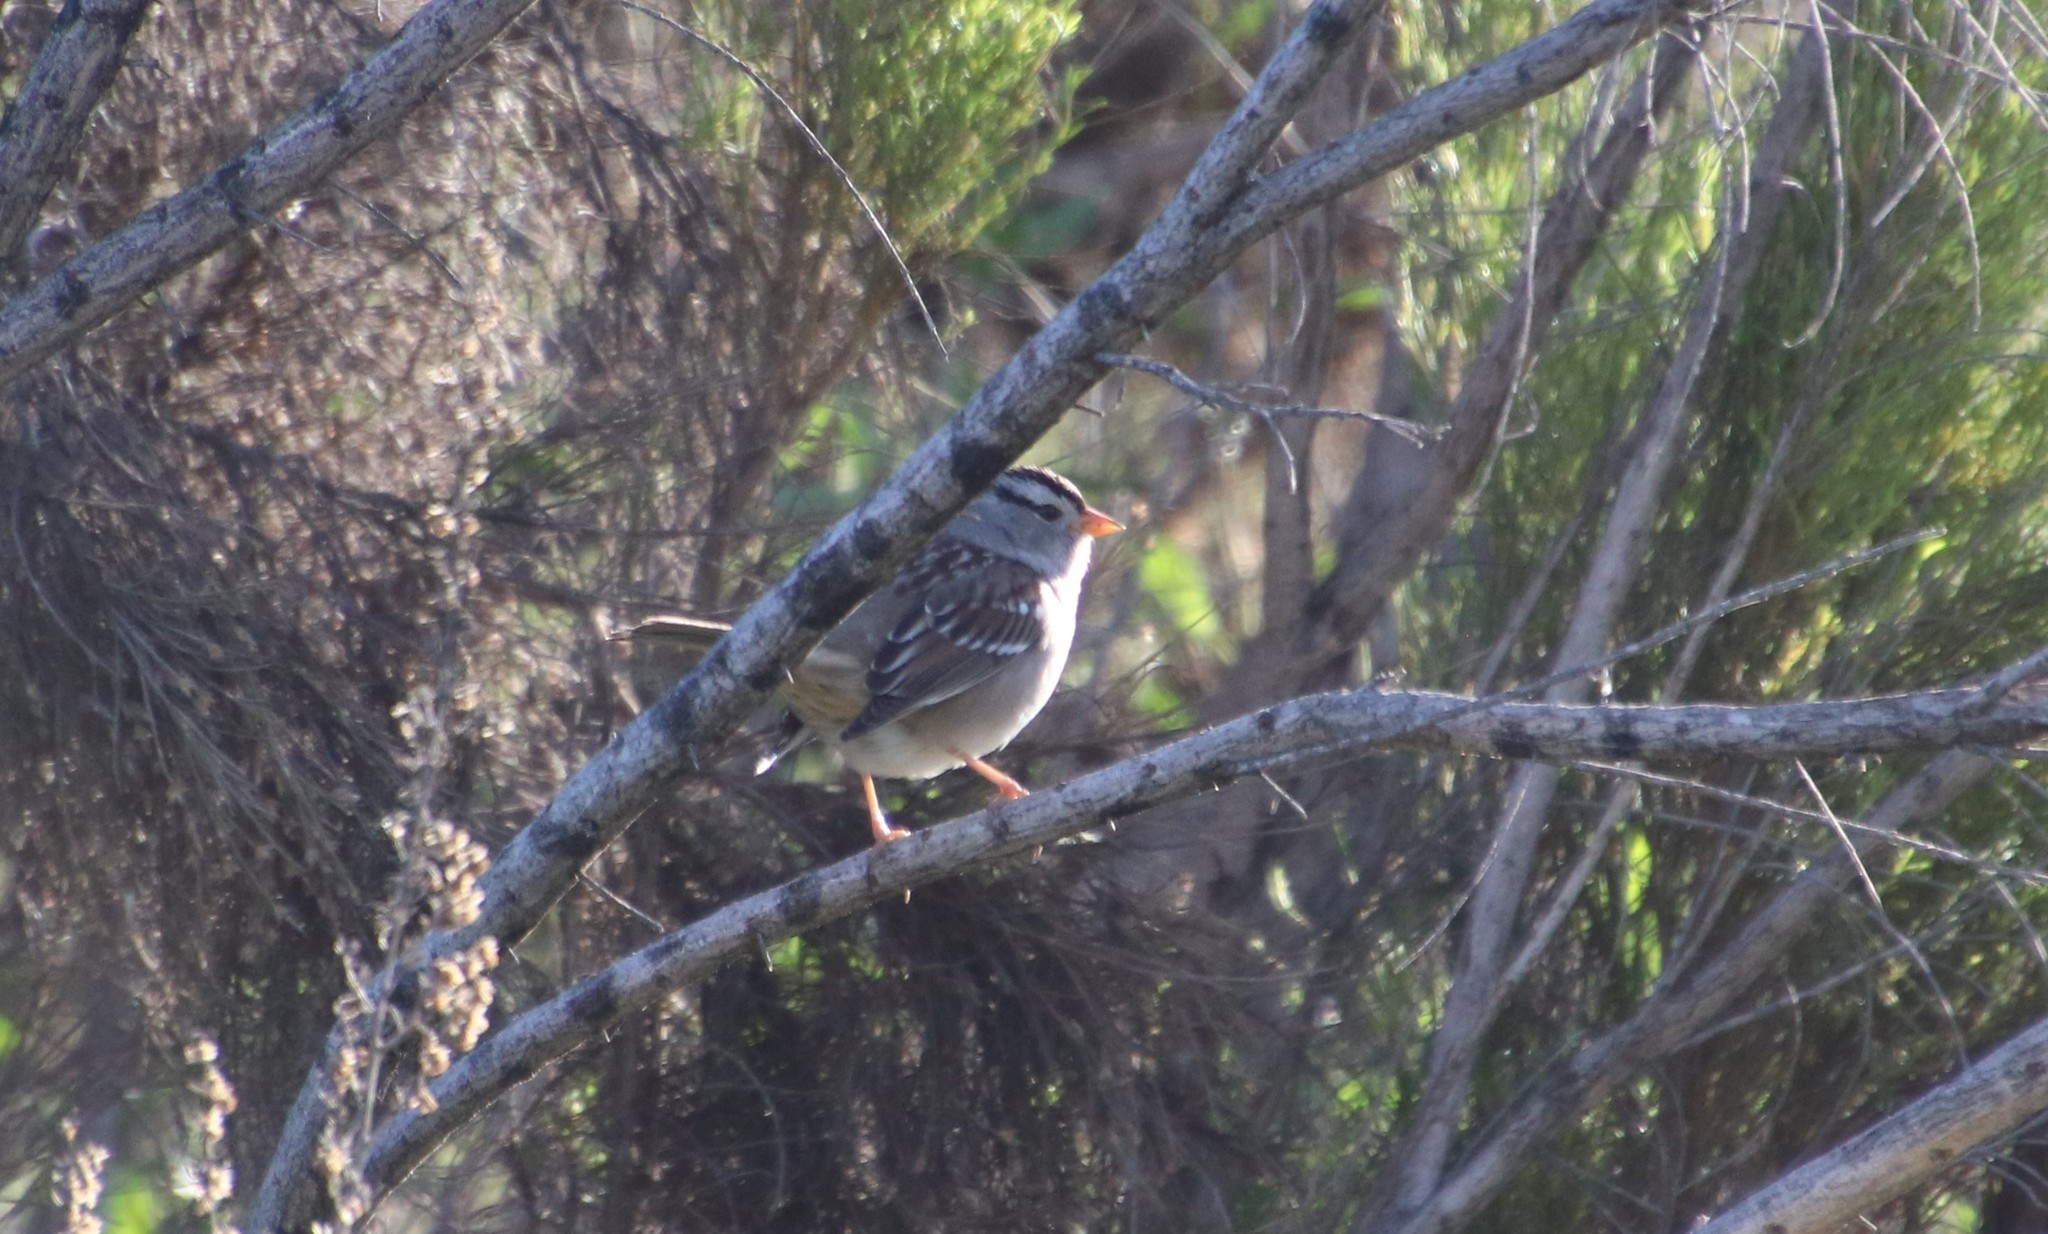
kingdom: Animalia
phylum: Chordata
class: Aves
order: Passeriformes
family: Passerellidae
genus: Zonotrichia
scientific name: Zonotrichia leucophrys
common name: White-crowned sparrow
